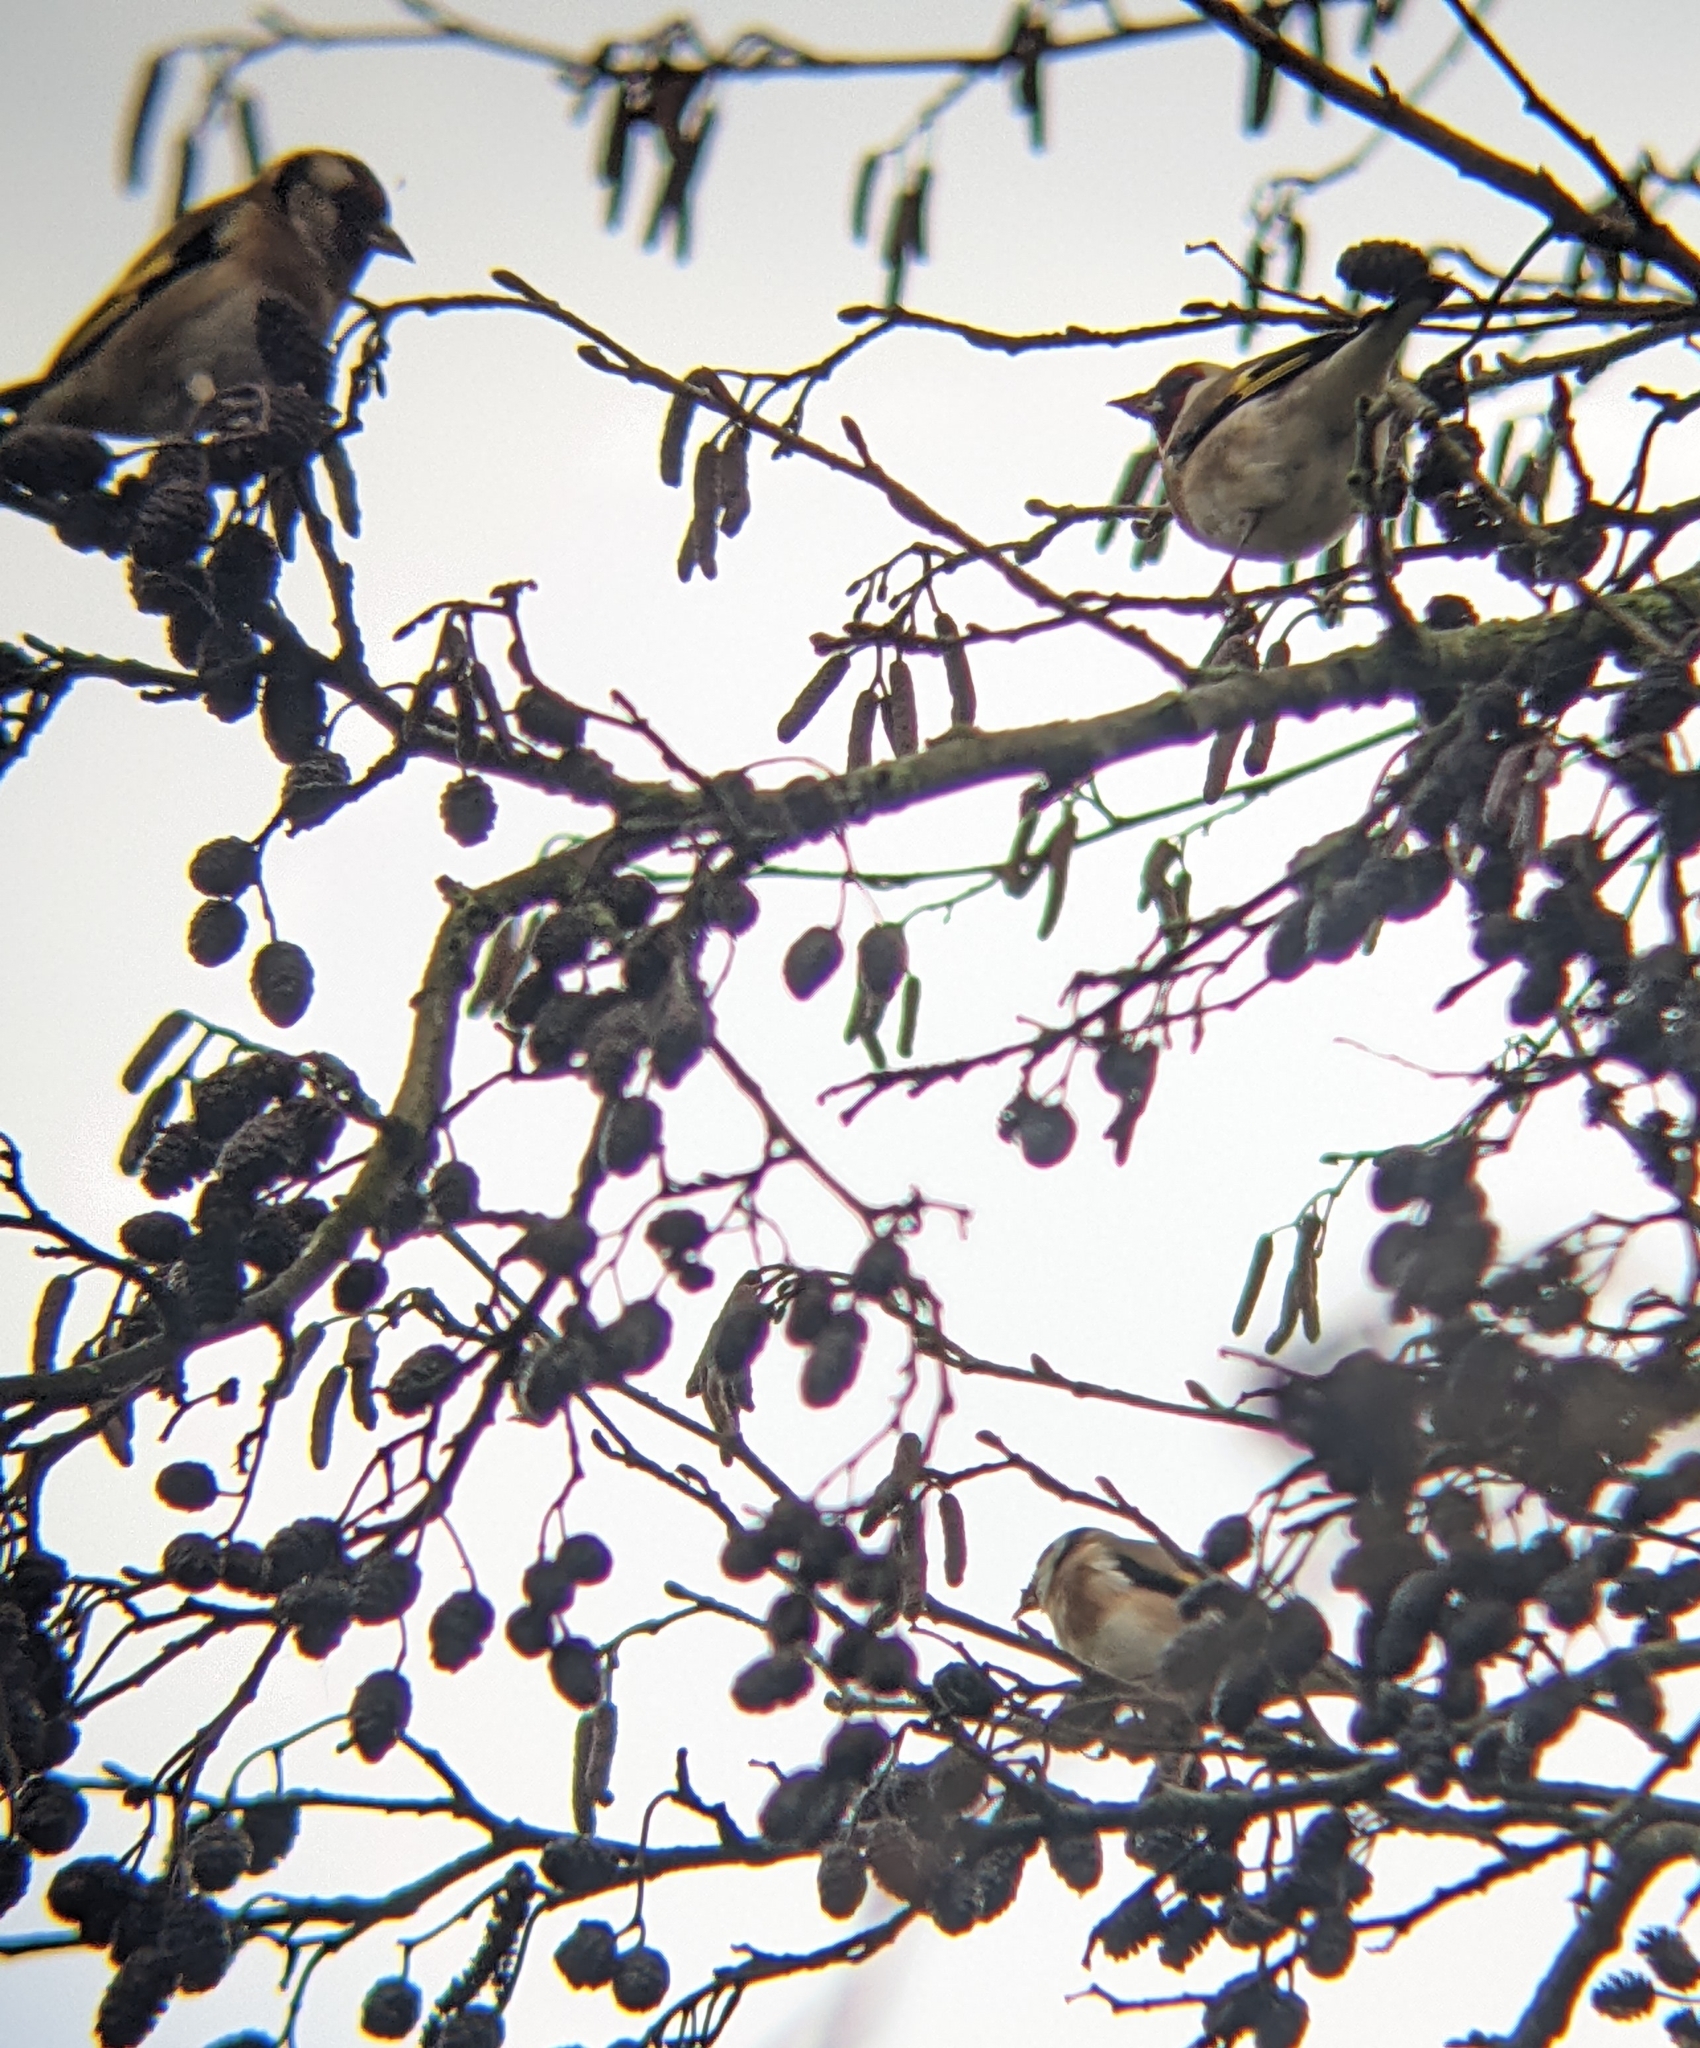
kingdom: Animalia
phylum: Chordata
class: Aves
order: Passeriformes
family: Fringillidae
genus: Carduelis
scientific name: Carduelis carduelis
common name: European goldfinch
